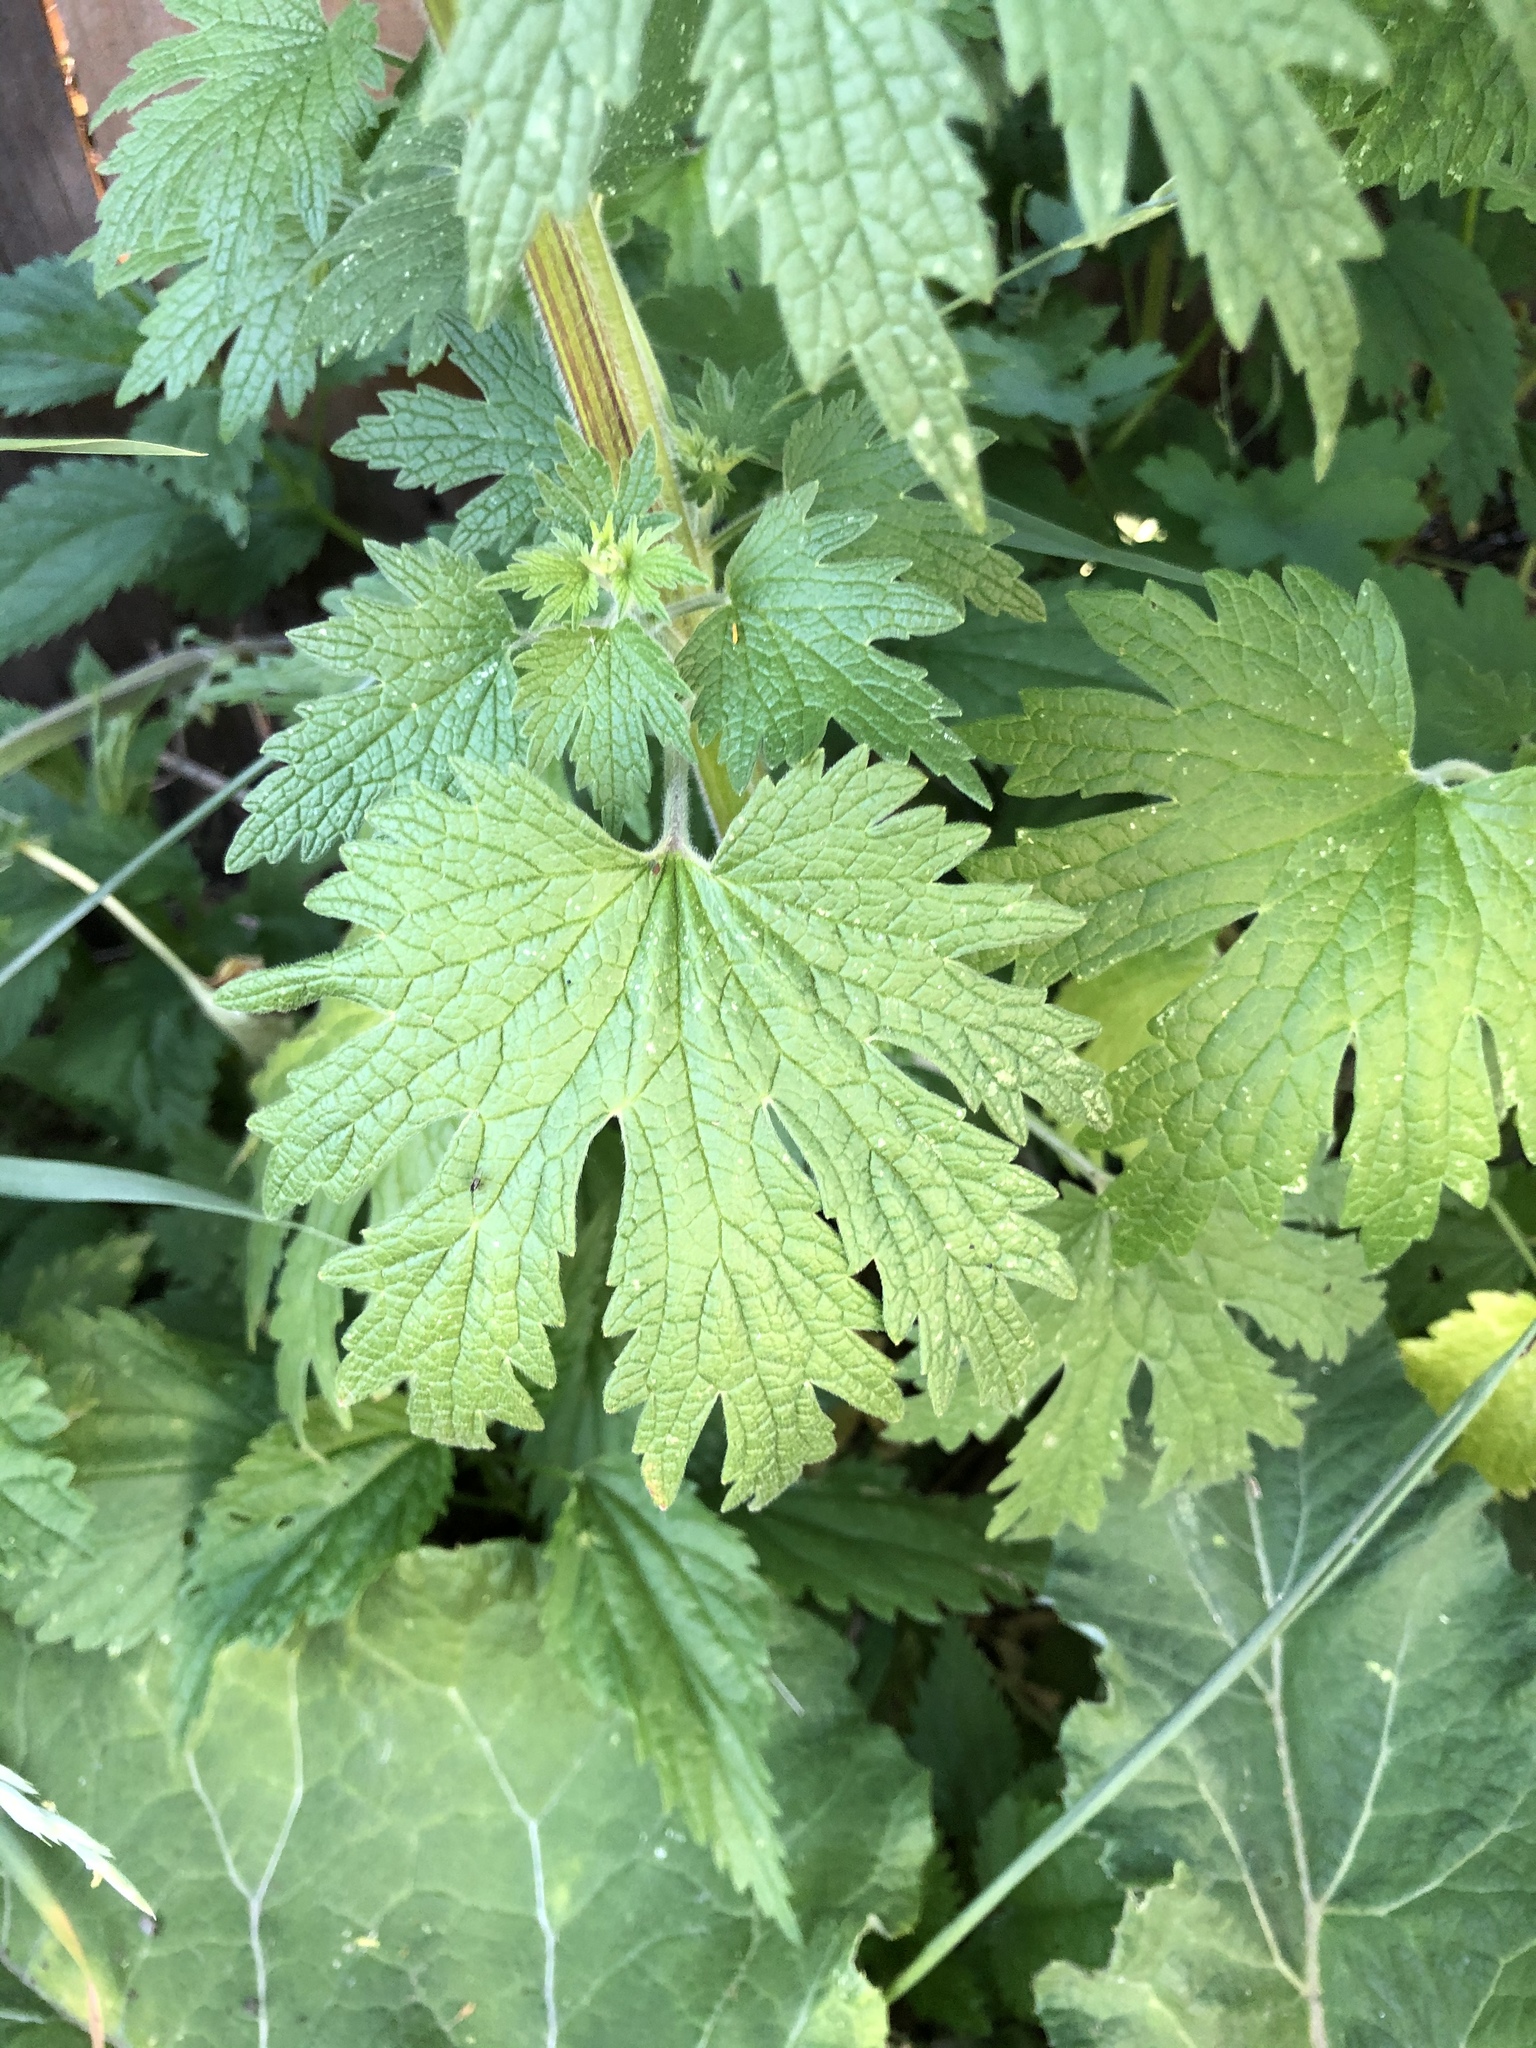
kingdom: Plantae
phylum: Tracheophyta
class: Magnoliopsida
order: Lamiales
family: Lamiaceae
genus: Leonurus
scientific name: Leonurus quinquelobatus
